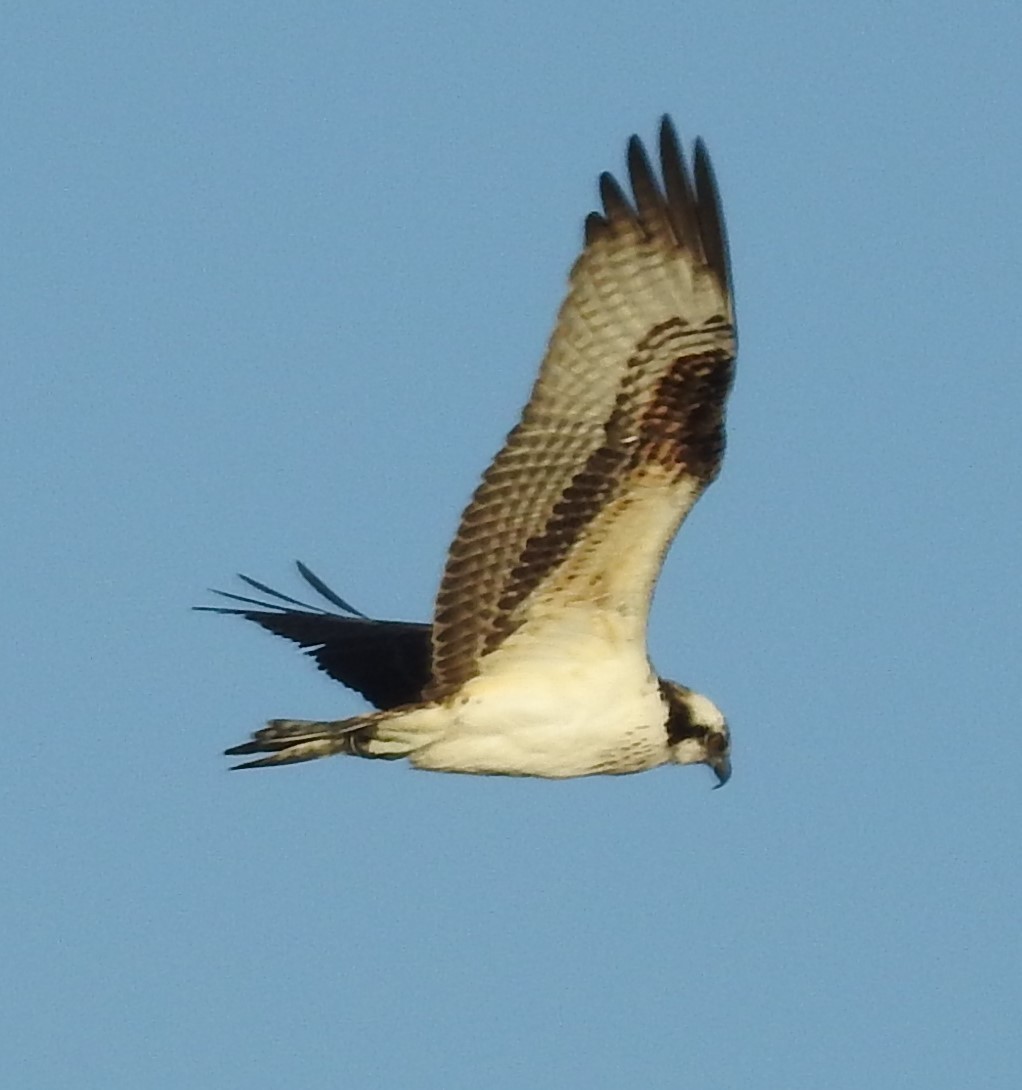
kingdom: Animalia
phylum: Chordata
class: Aves
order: Accipitriformes
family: Pandionidae
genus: Pandion
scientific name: Pandion haliaetus
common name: Osprey
